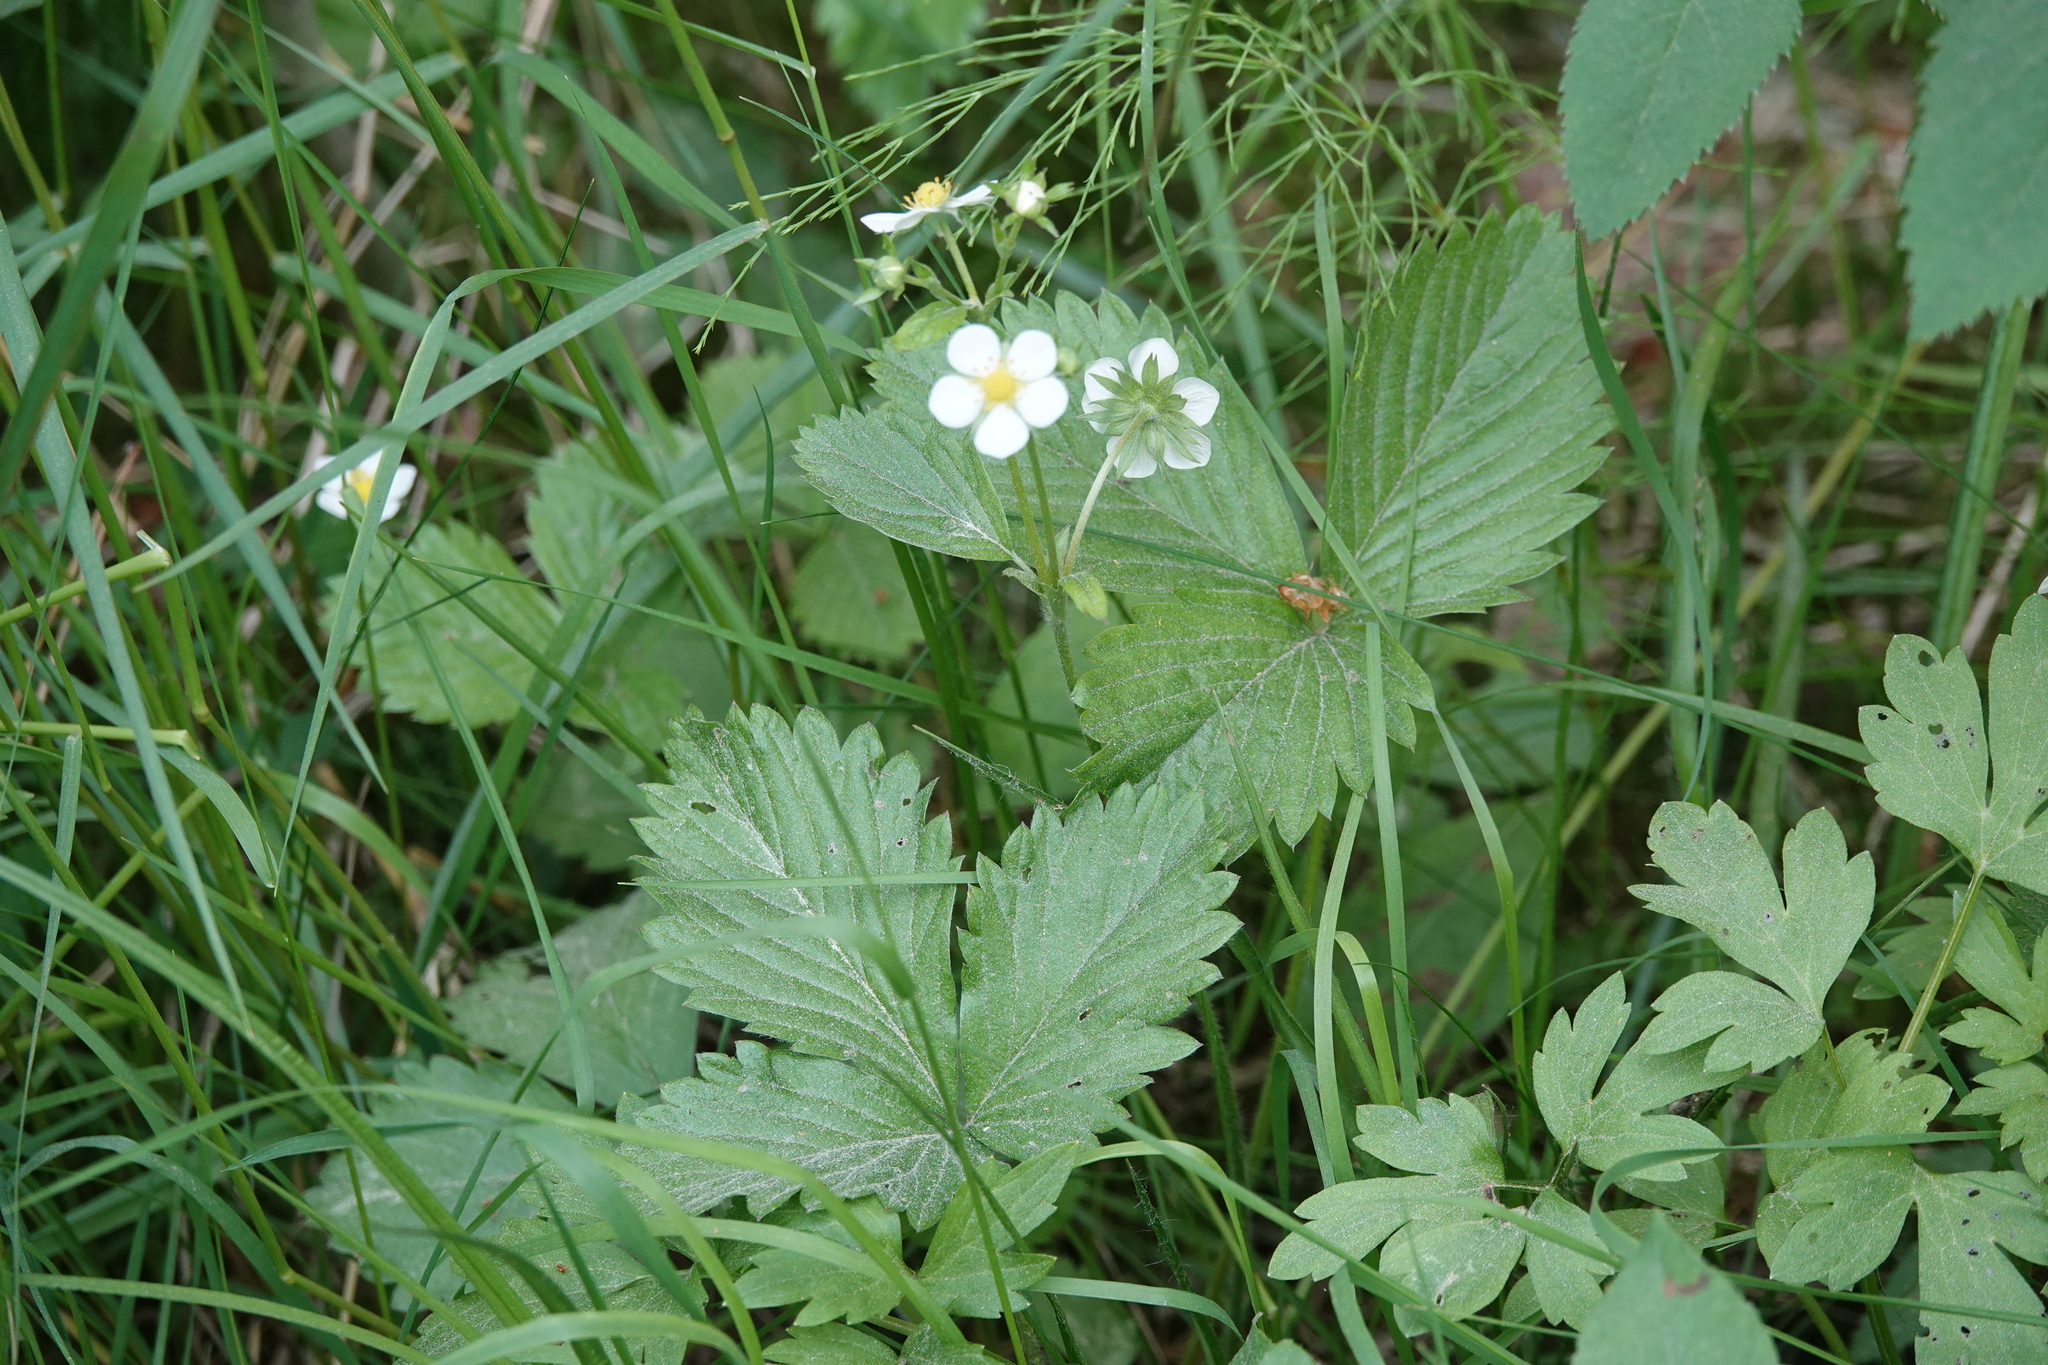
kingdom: Plantae
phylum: Tracheophyta
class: Magnoliopsida
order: Rosales
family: Rosaceae
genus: Fragaria
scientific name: Fragaria vesca
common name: Wild strawberry
